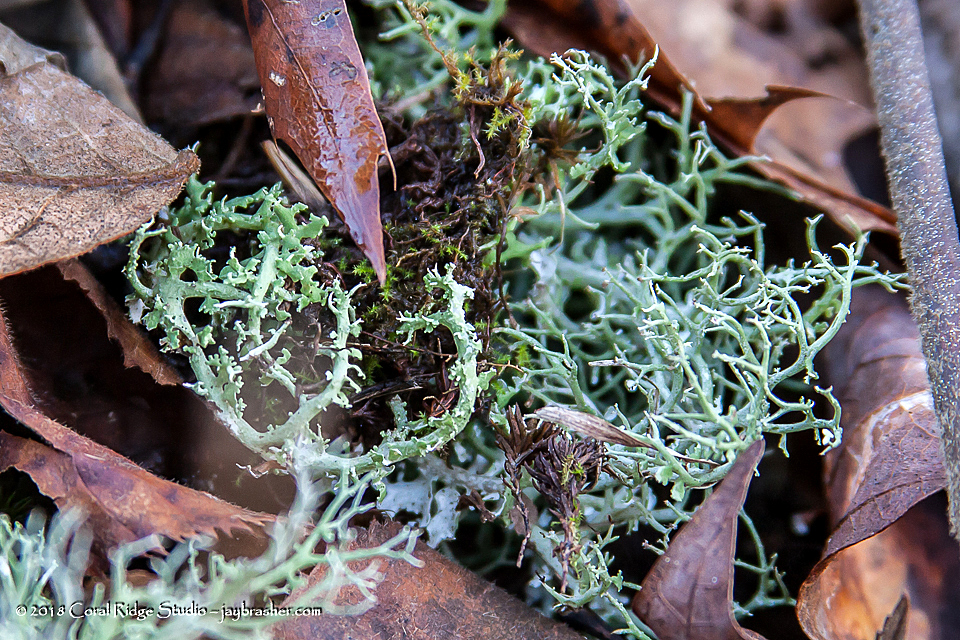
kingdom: Fungi
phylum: Ascomycota
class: Lecanoromycetes
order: Lecanorales
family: Cladoniaceae
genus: Cladonia
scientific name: Cladonia furcata
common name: Many-forked cladonia
